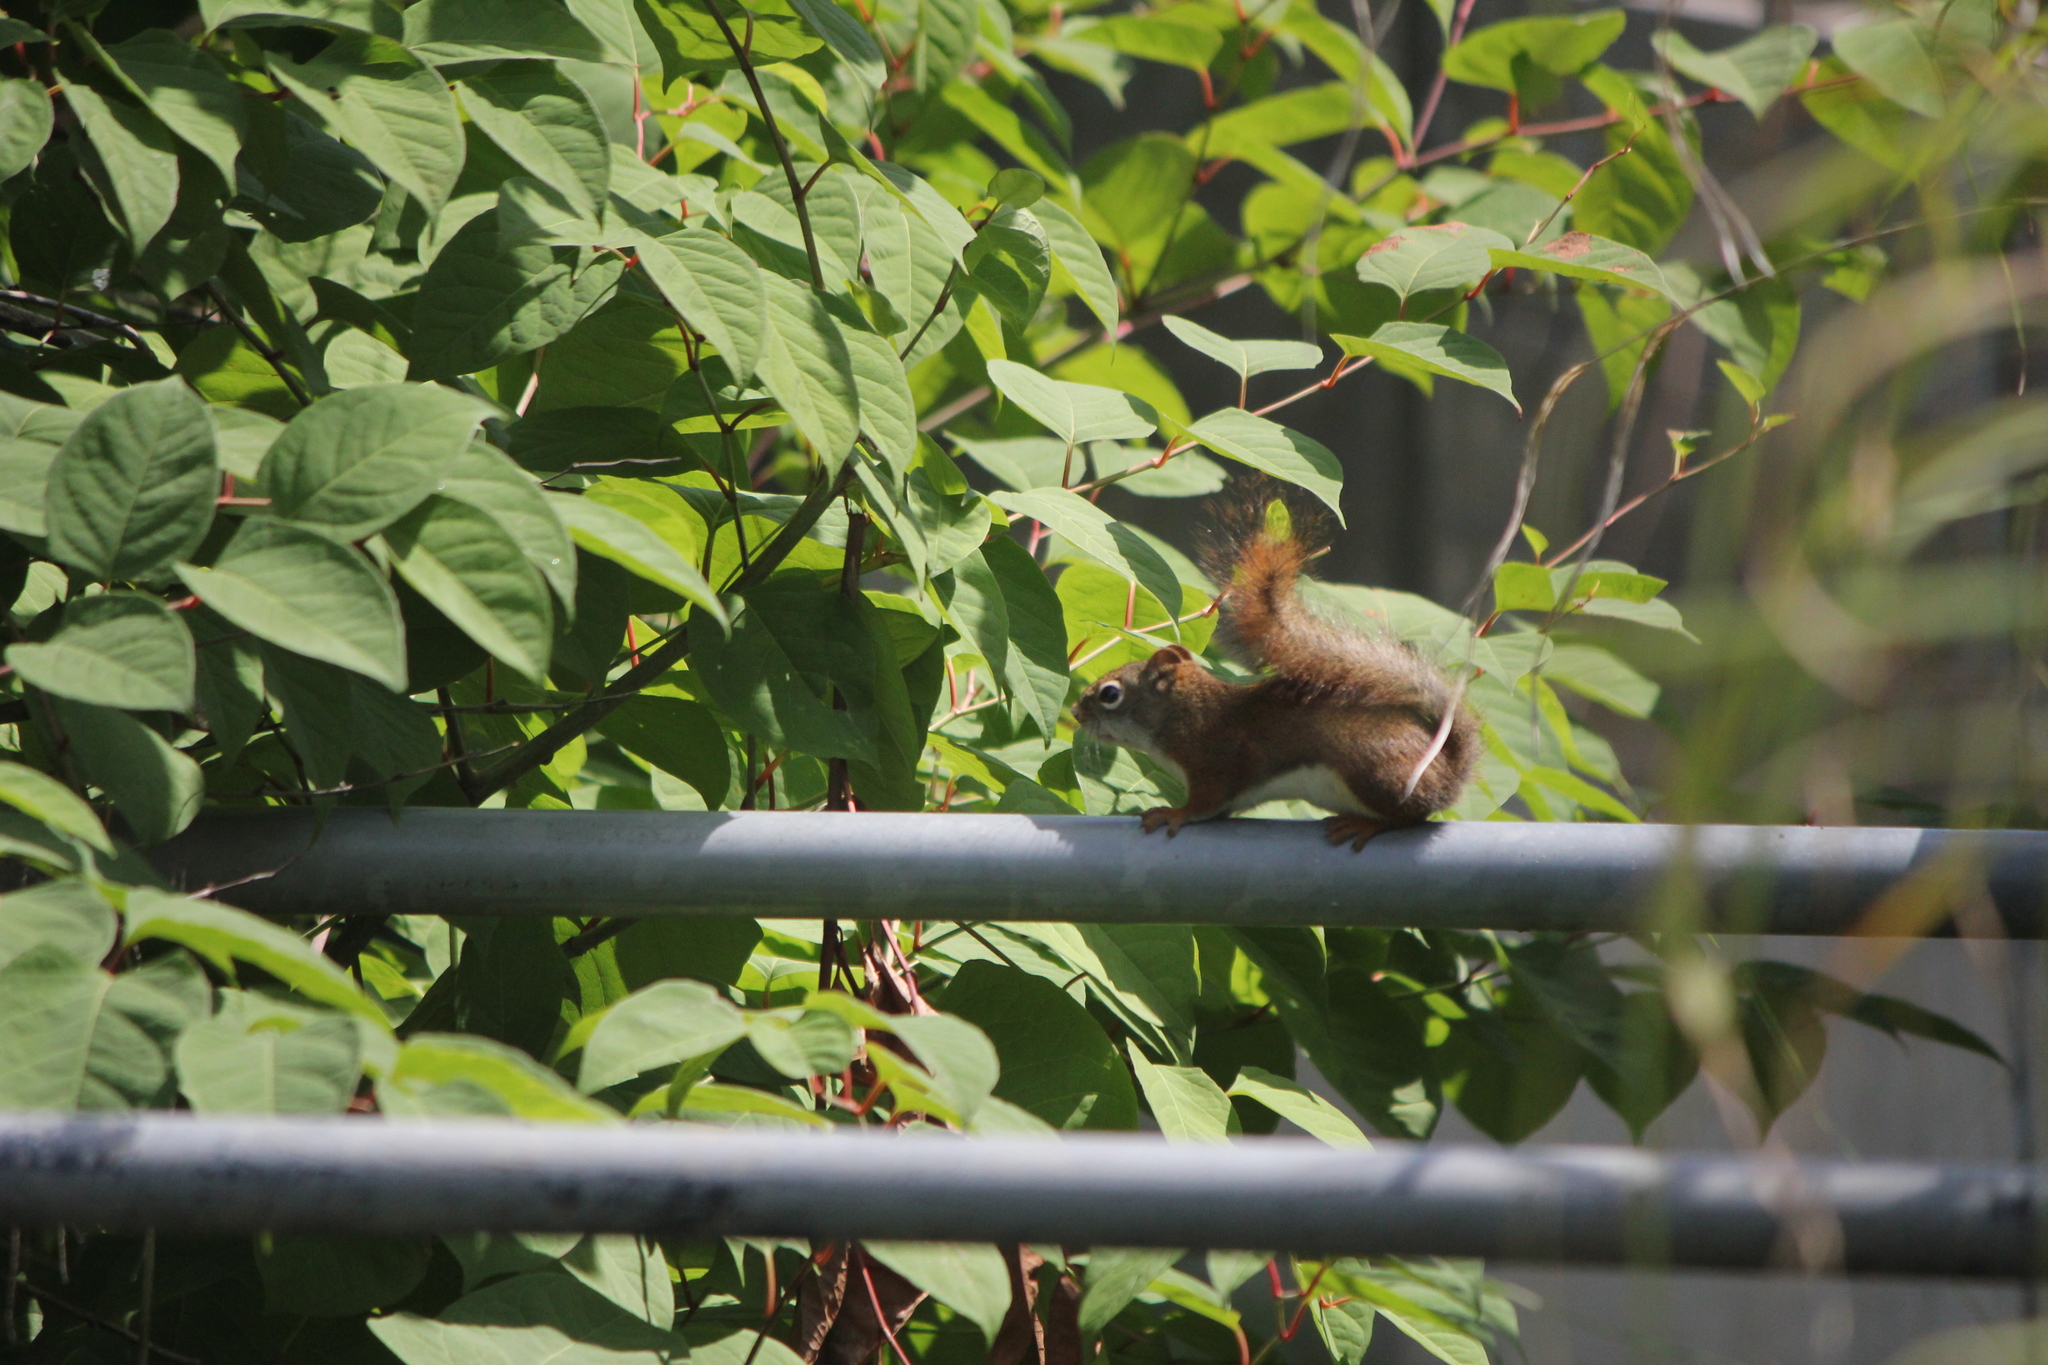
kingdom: Animalia
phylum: Chordata
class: Mammalia
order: Rodentia
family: Sciuridae
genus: Tamiasciurus
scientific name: Tamiasciurus hudsonicus
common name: Red squirrel
